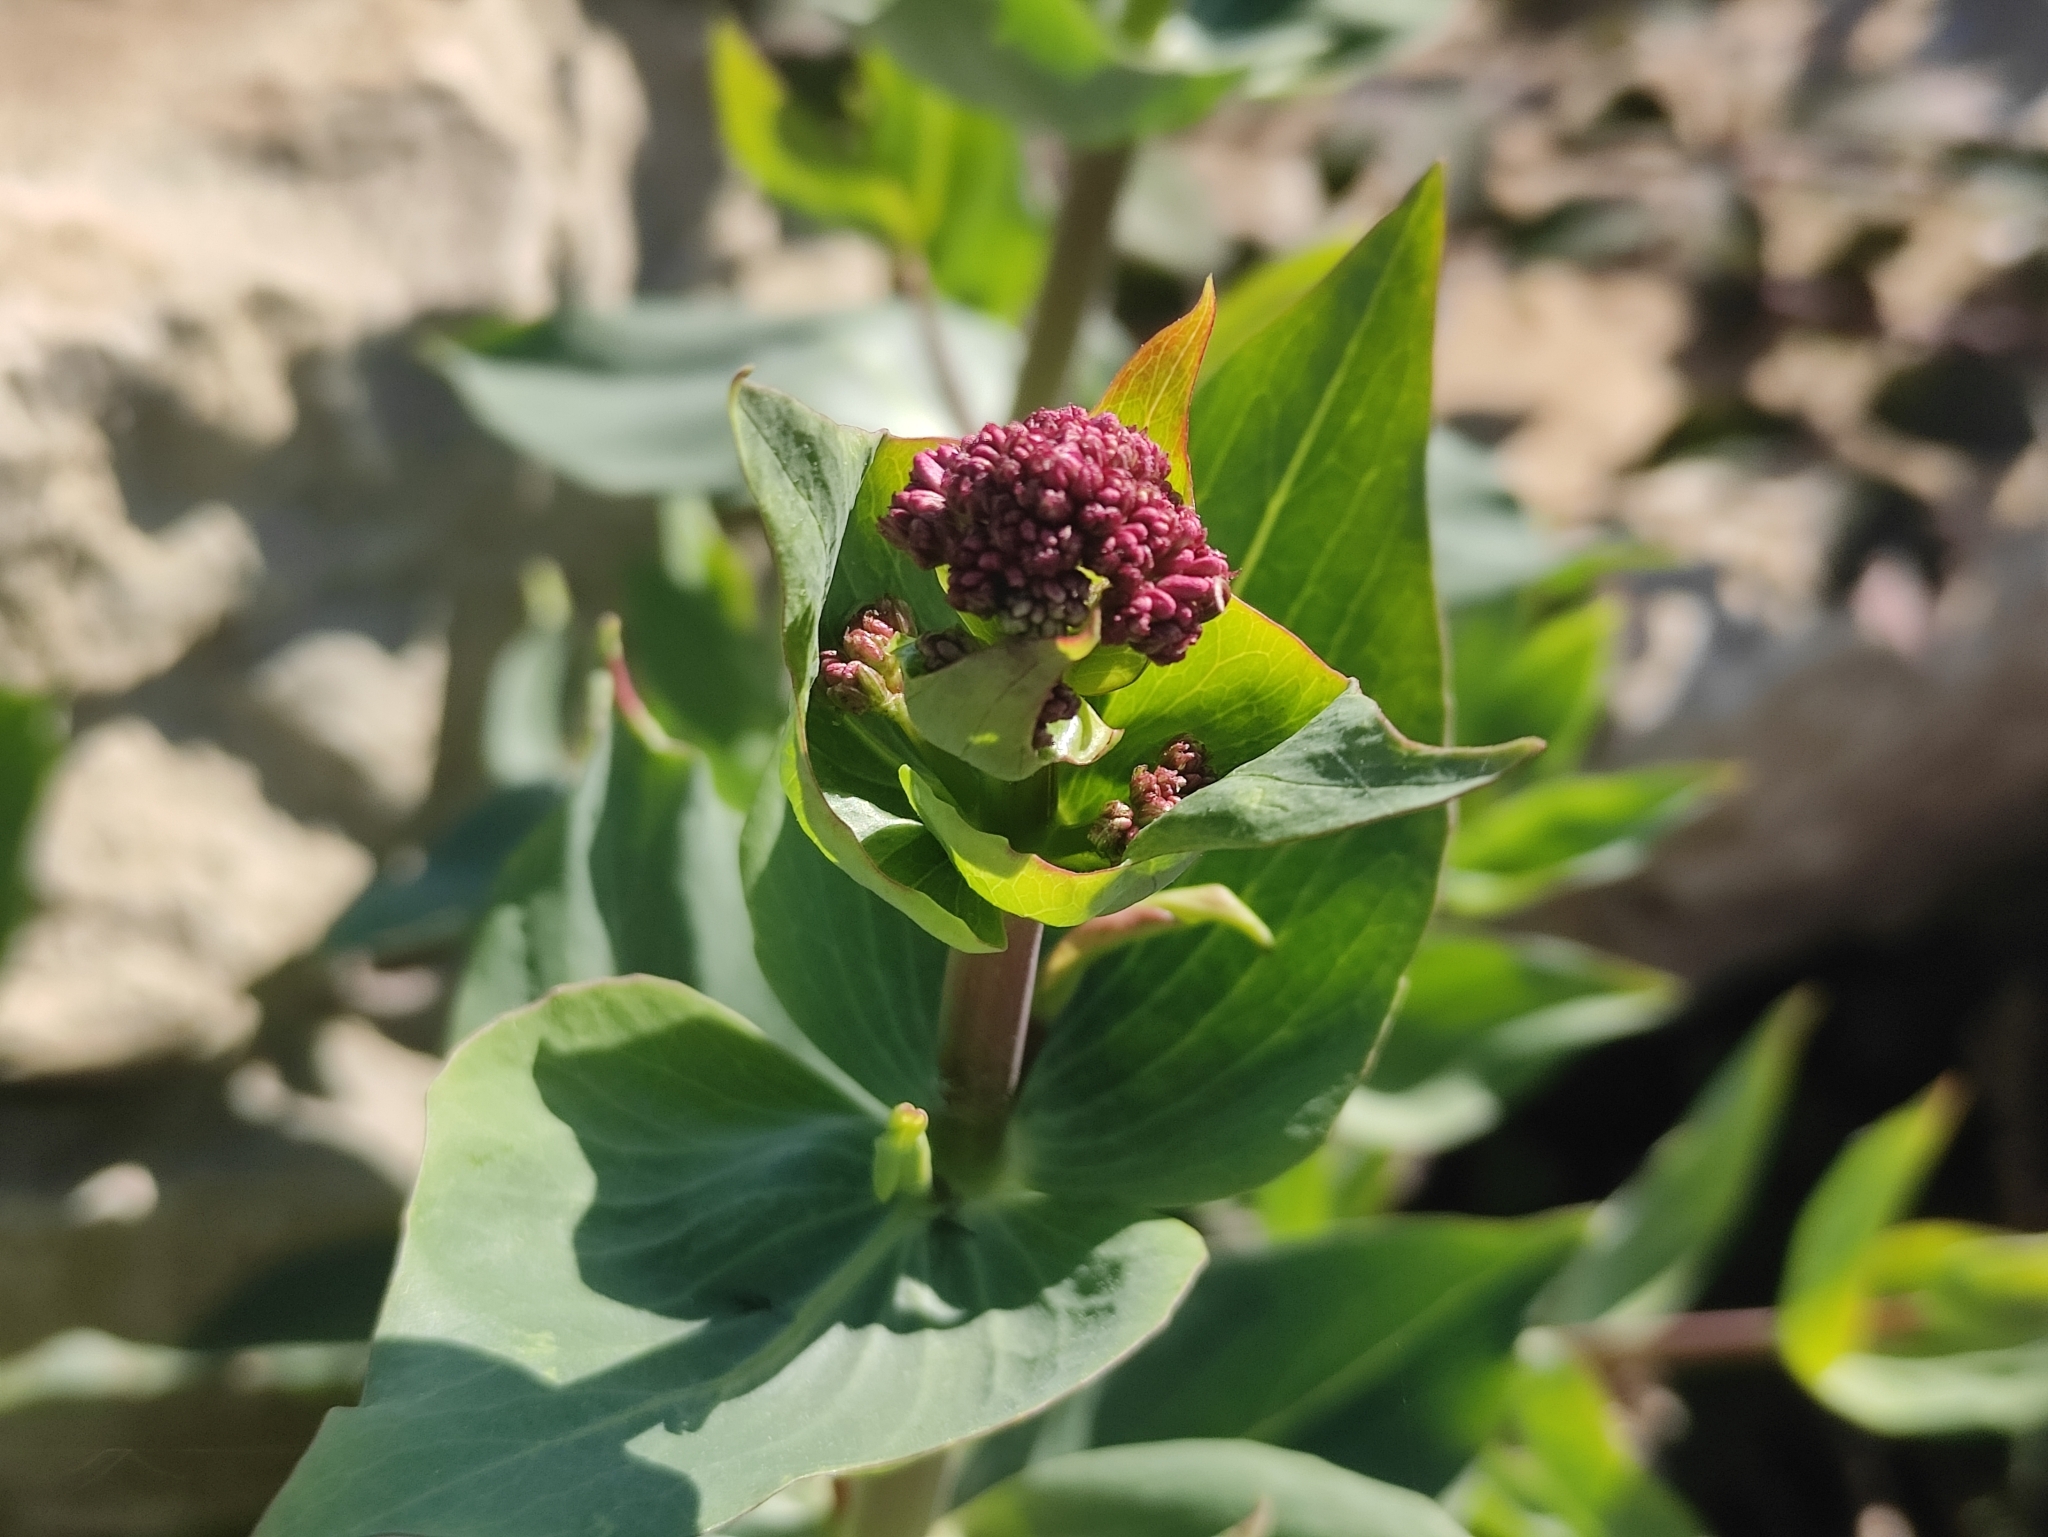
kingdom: Plantae
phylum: Tracheophyta
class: Magnoliopsida
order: Dipsacales
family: Caprifoliaceae
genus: Centranthus
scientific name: Centranthus ruber
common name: Red valerian
